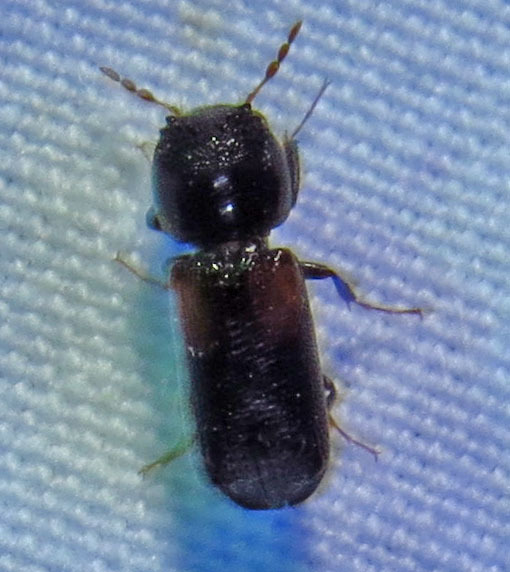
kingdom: Animalia
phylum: Arthropoda
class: Insecta
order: Coleoptera
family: Bostrichidae
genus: Xylobiops
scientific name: Xylobiops basilaris
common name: Red-shouldered bostrichid
